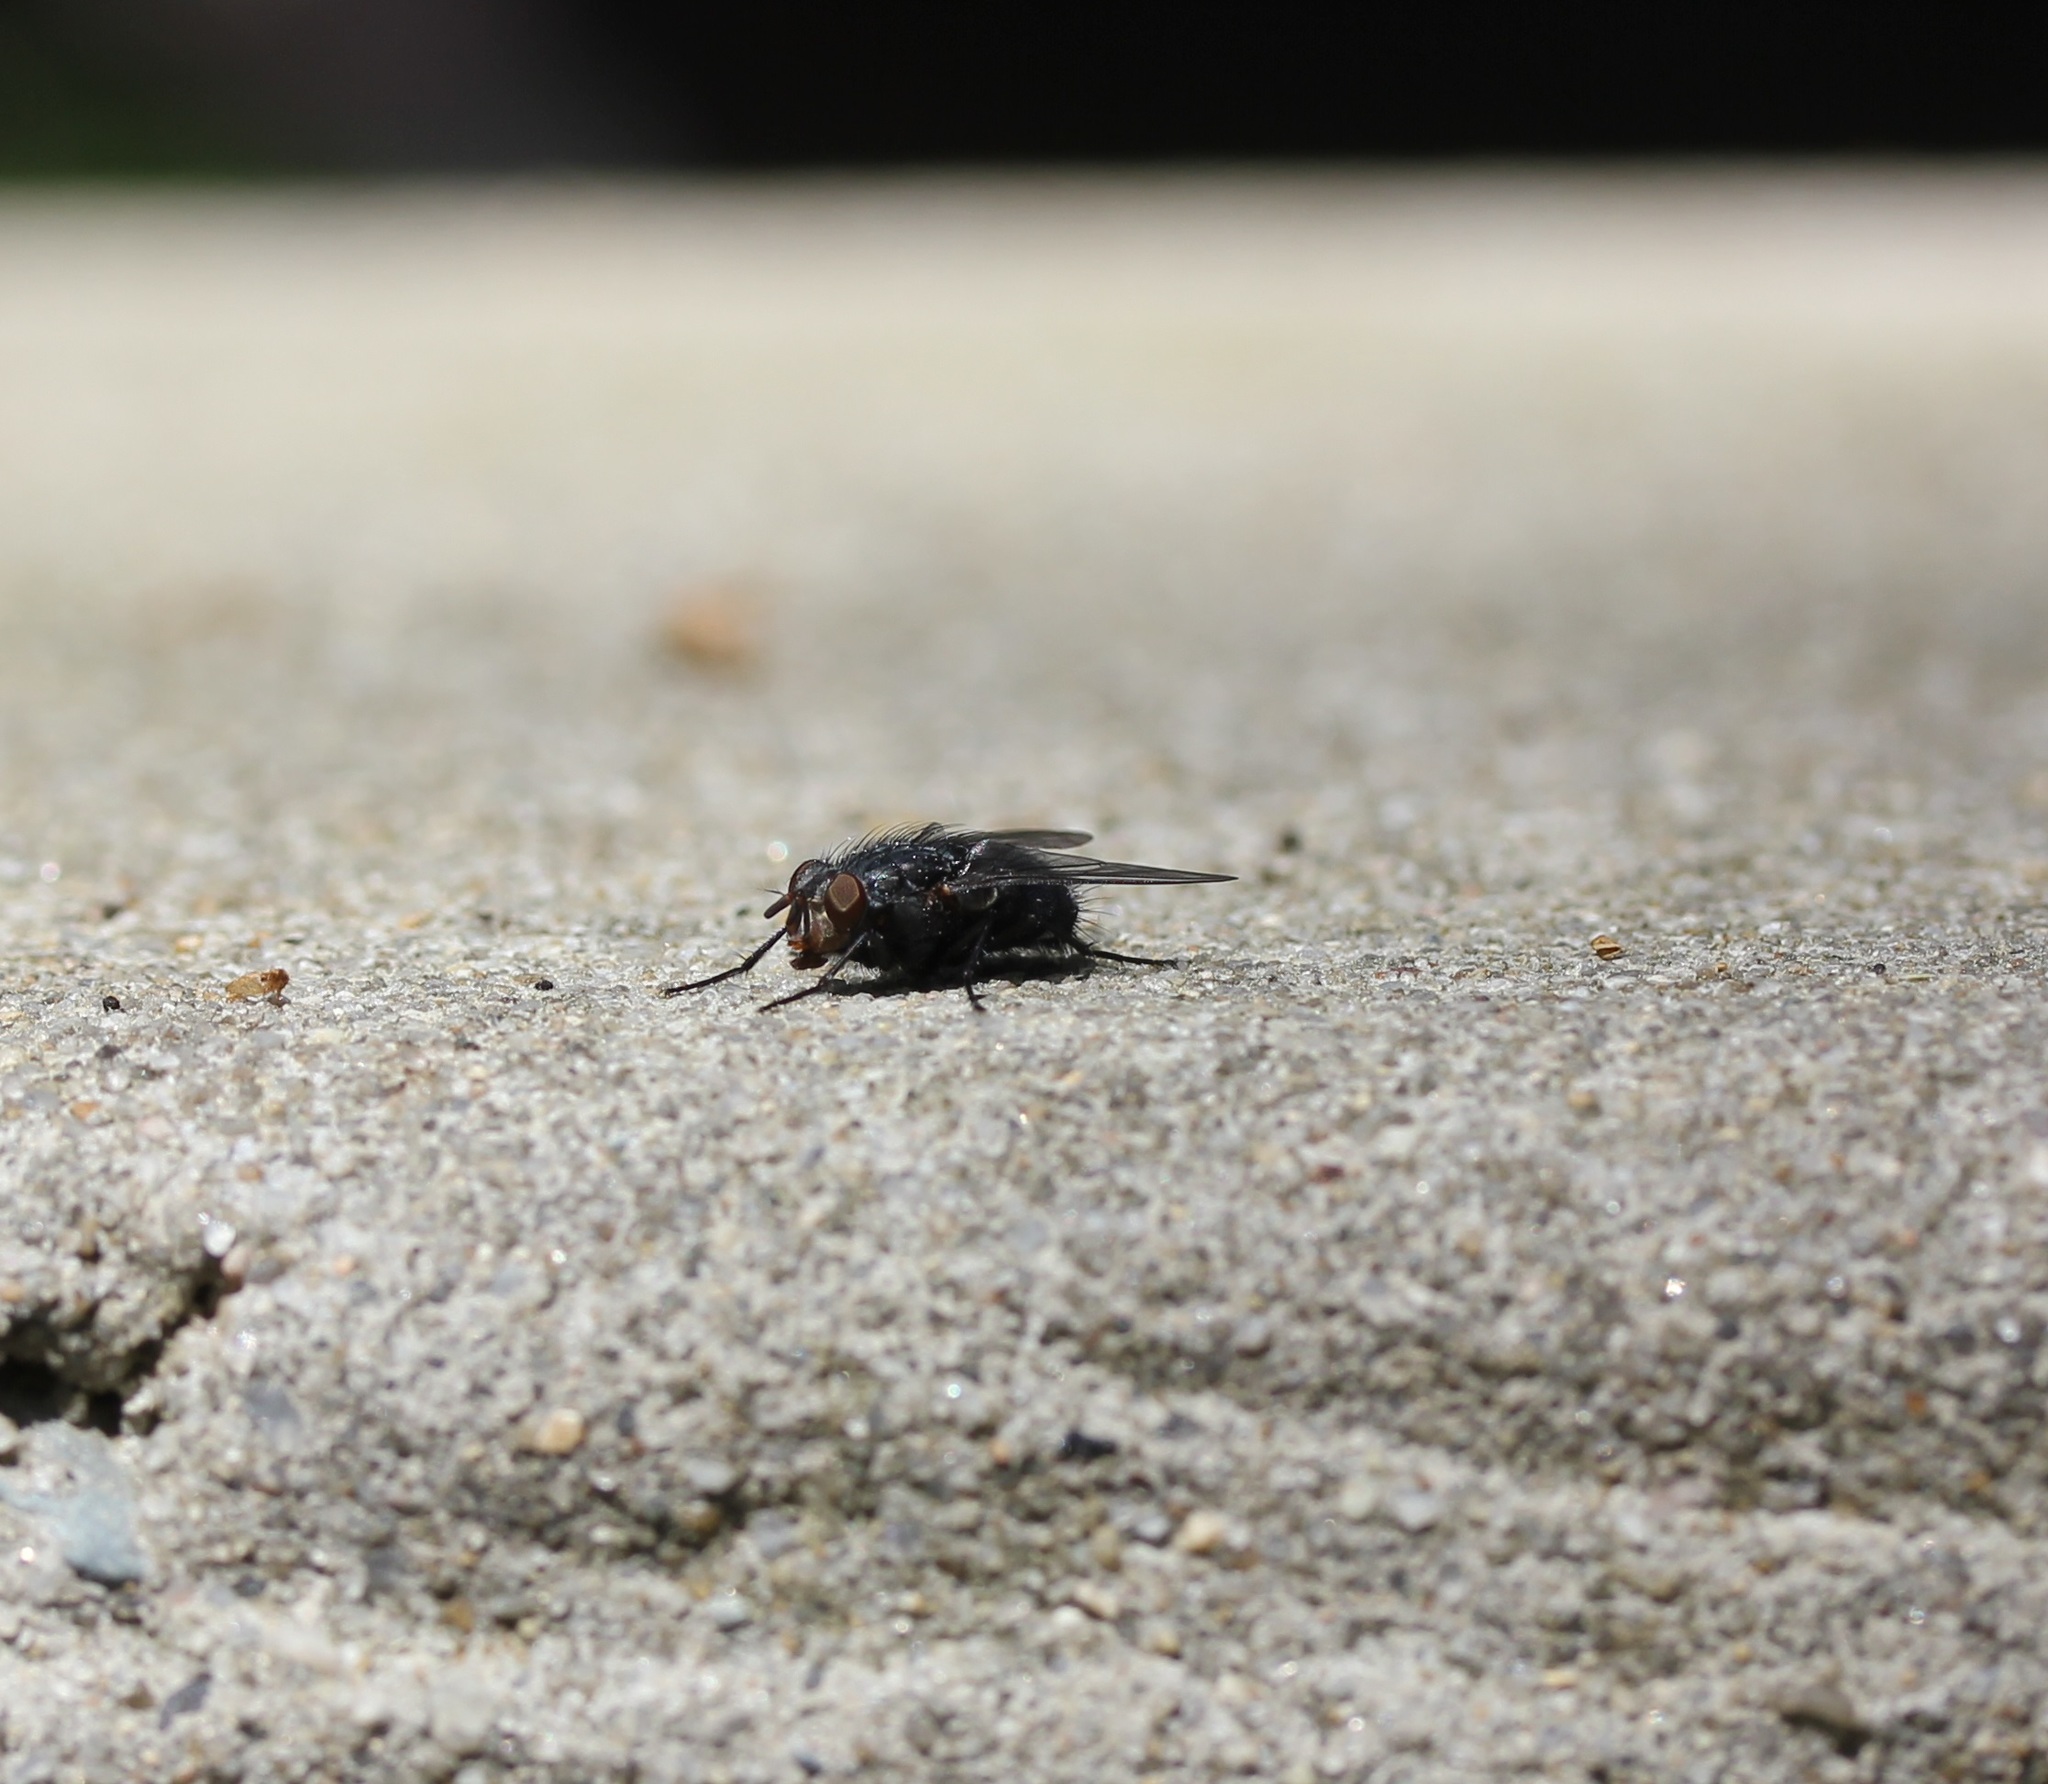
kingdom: Animalia
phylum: Arthropoda
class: Insecta
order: Diptera
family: Calliphoridae
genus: Calliphora
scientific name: Calliphora vicina
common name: Common blow flie
